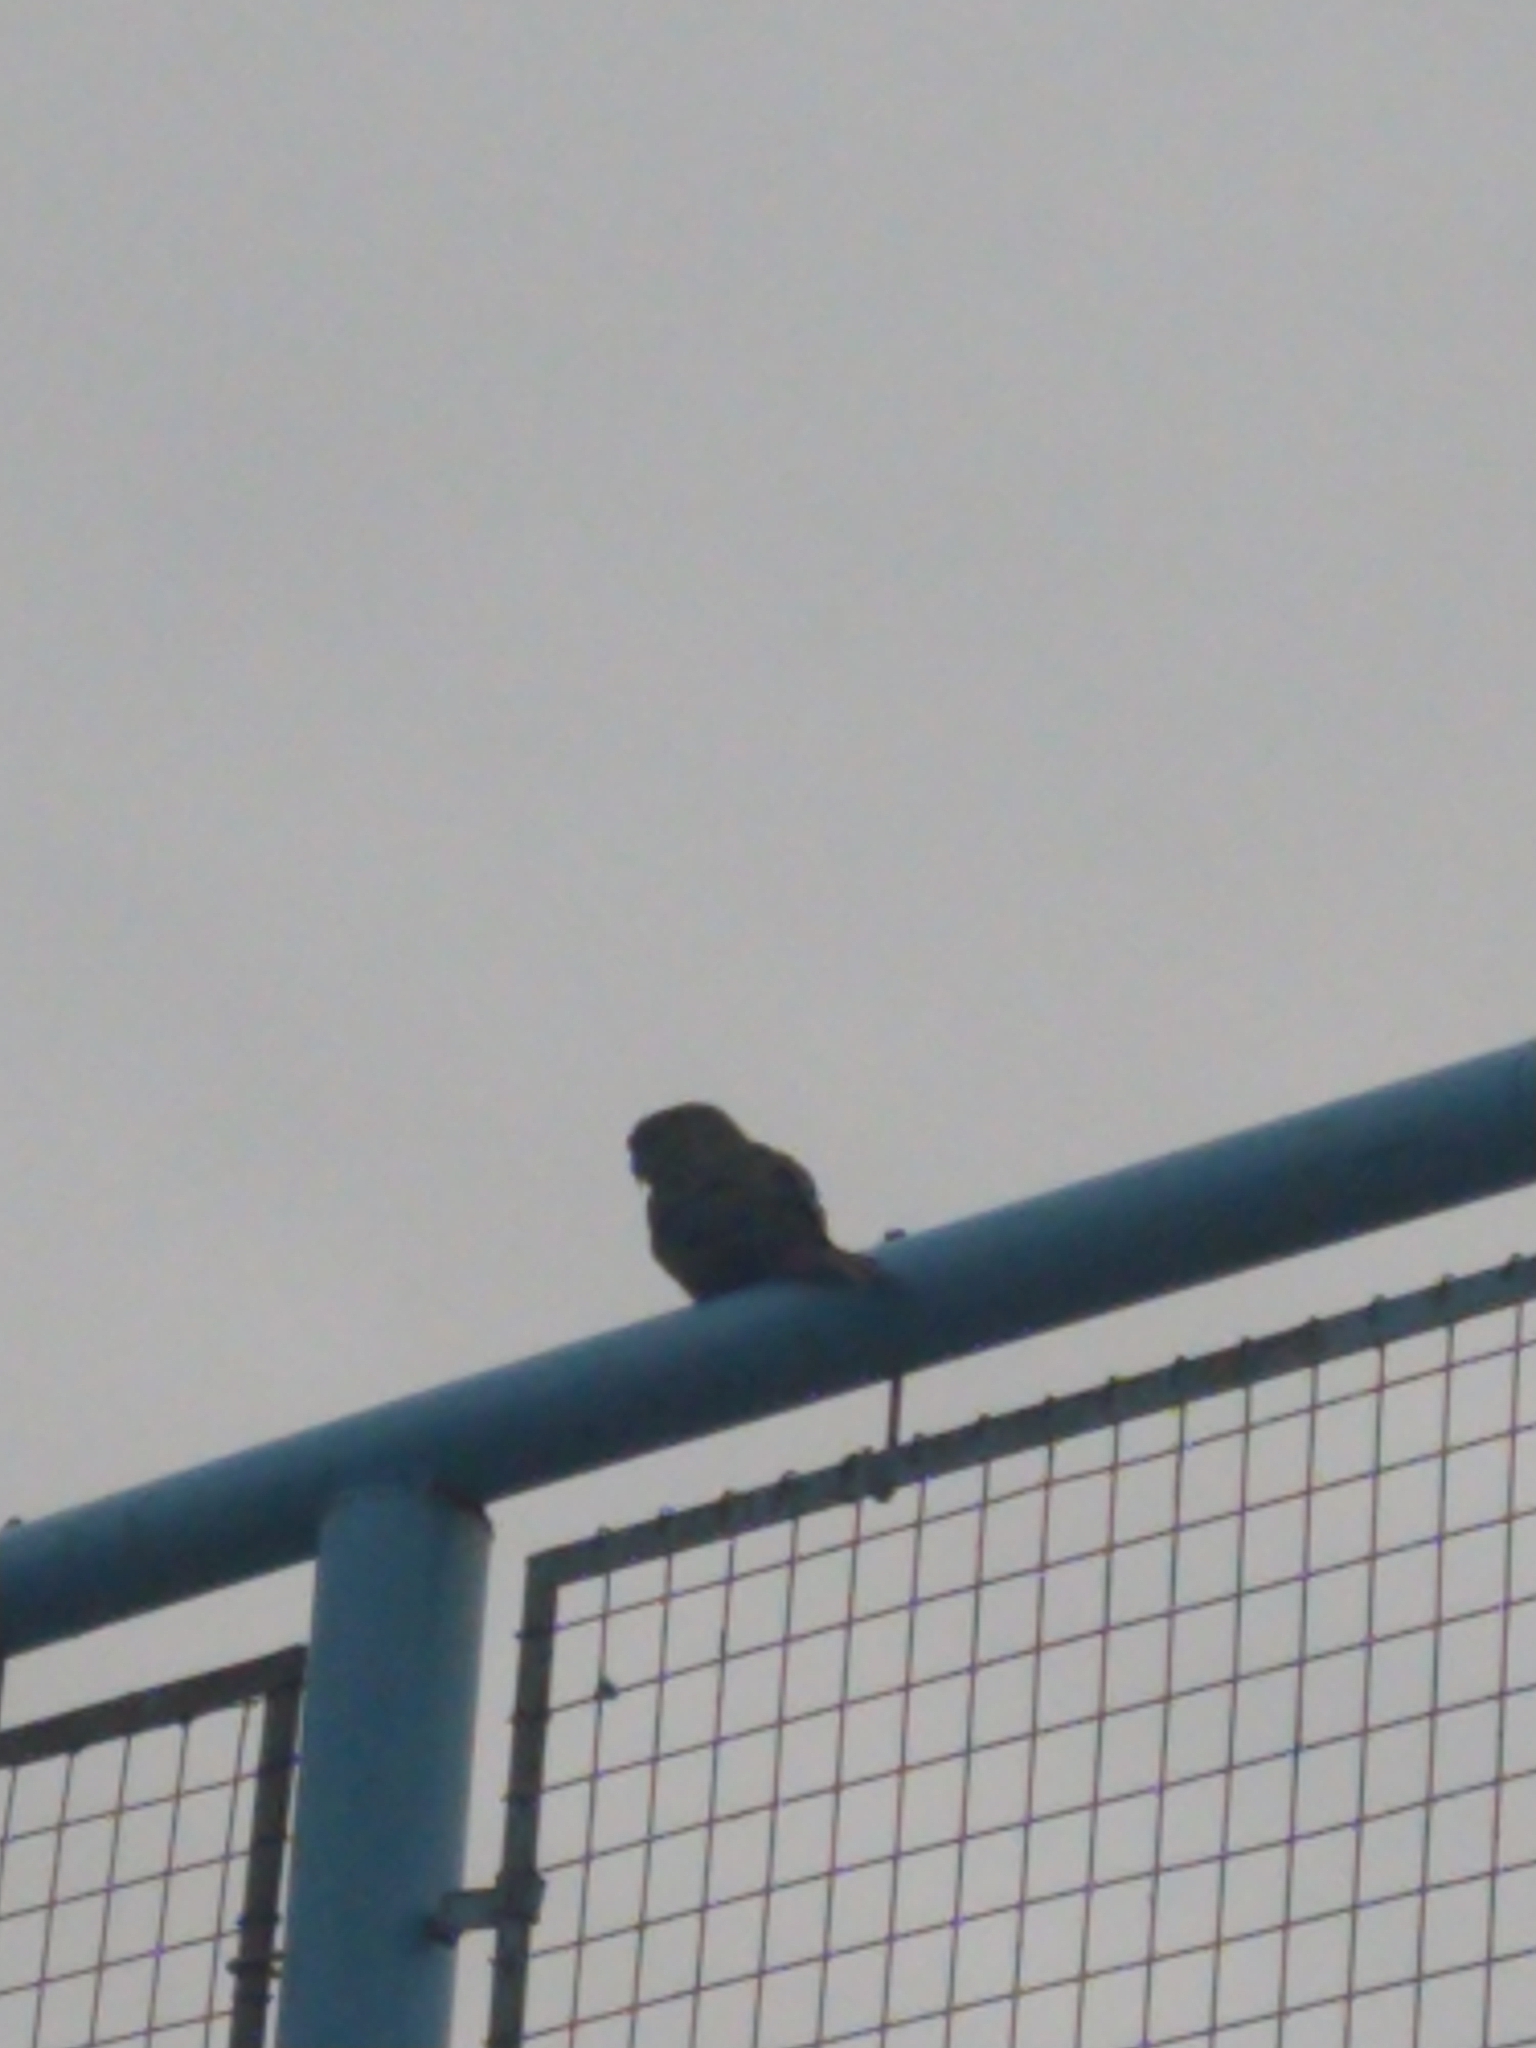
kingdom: Animalia
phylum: Chordata
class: Aves
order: Psittaciformes
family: Psittacidae
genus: Enicognathus
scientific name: Enicognathus ferrugineus
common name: Austral parakeet
